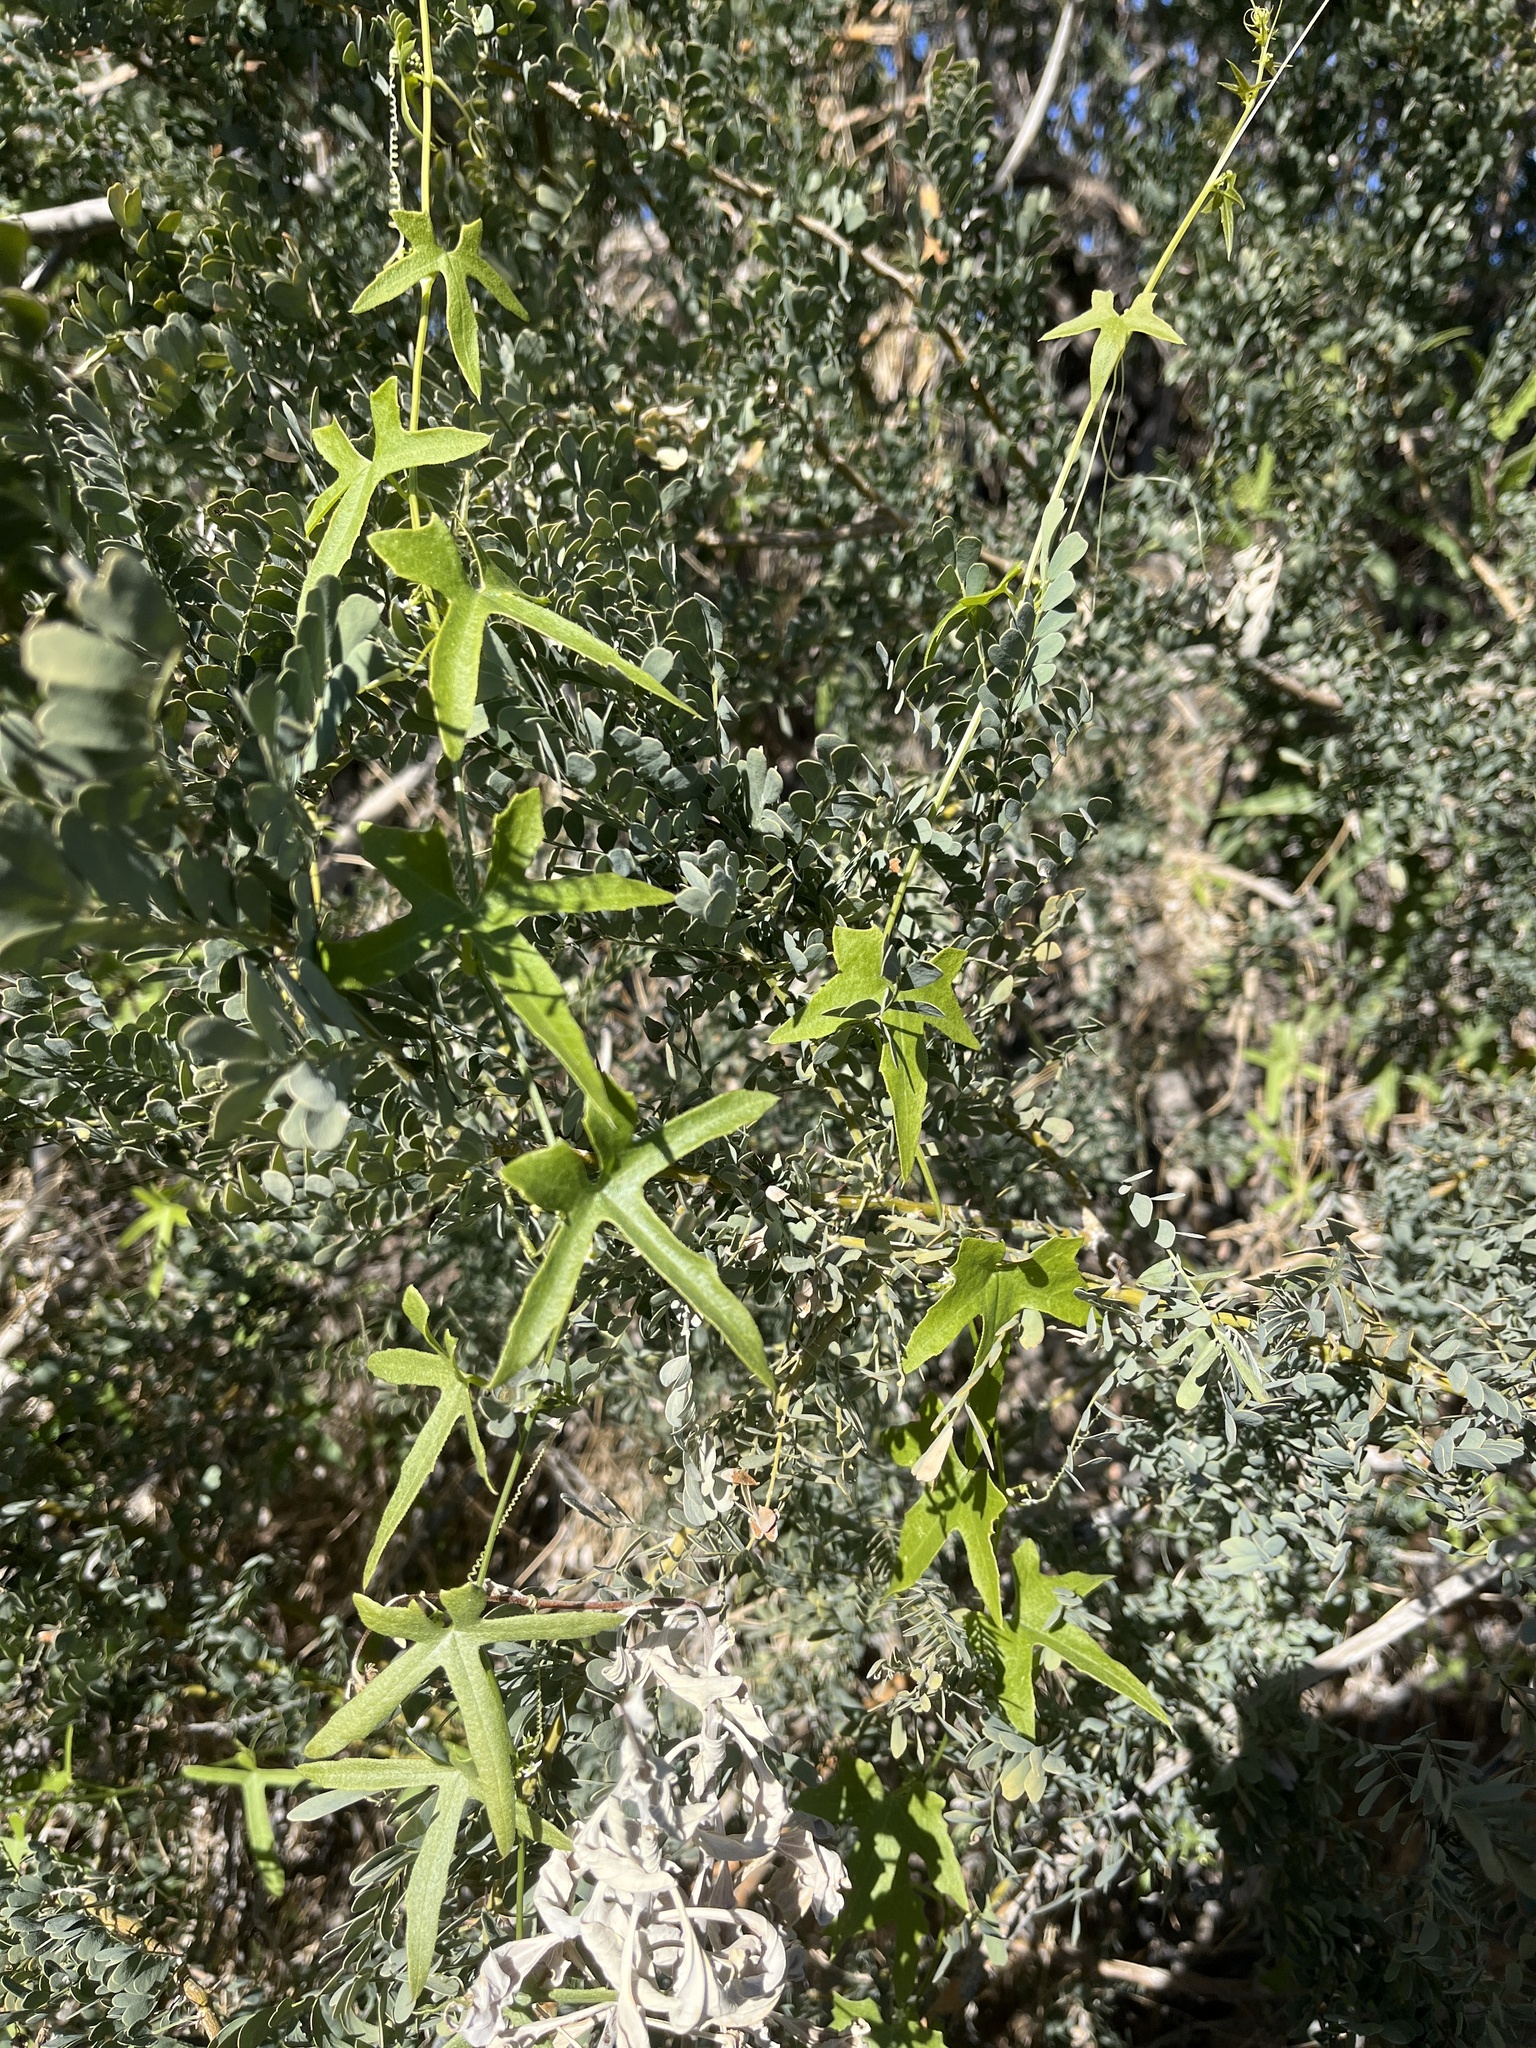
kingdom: Plantae
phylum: Tracheophyta
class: Magnoliopsida
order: Cucurbitales
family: Cucurbitaceae
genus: Echinopepon
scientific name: Echinopepon bigelovii
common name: Desert starvine
